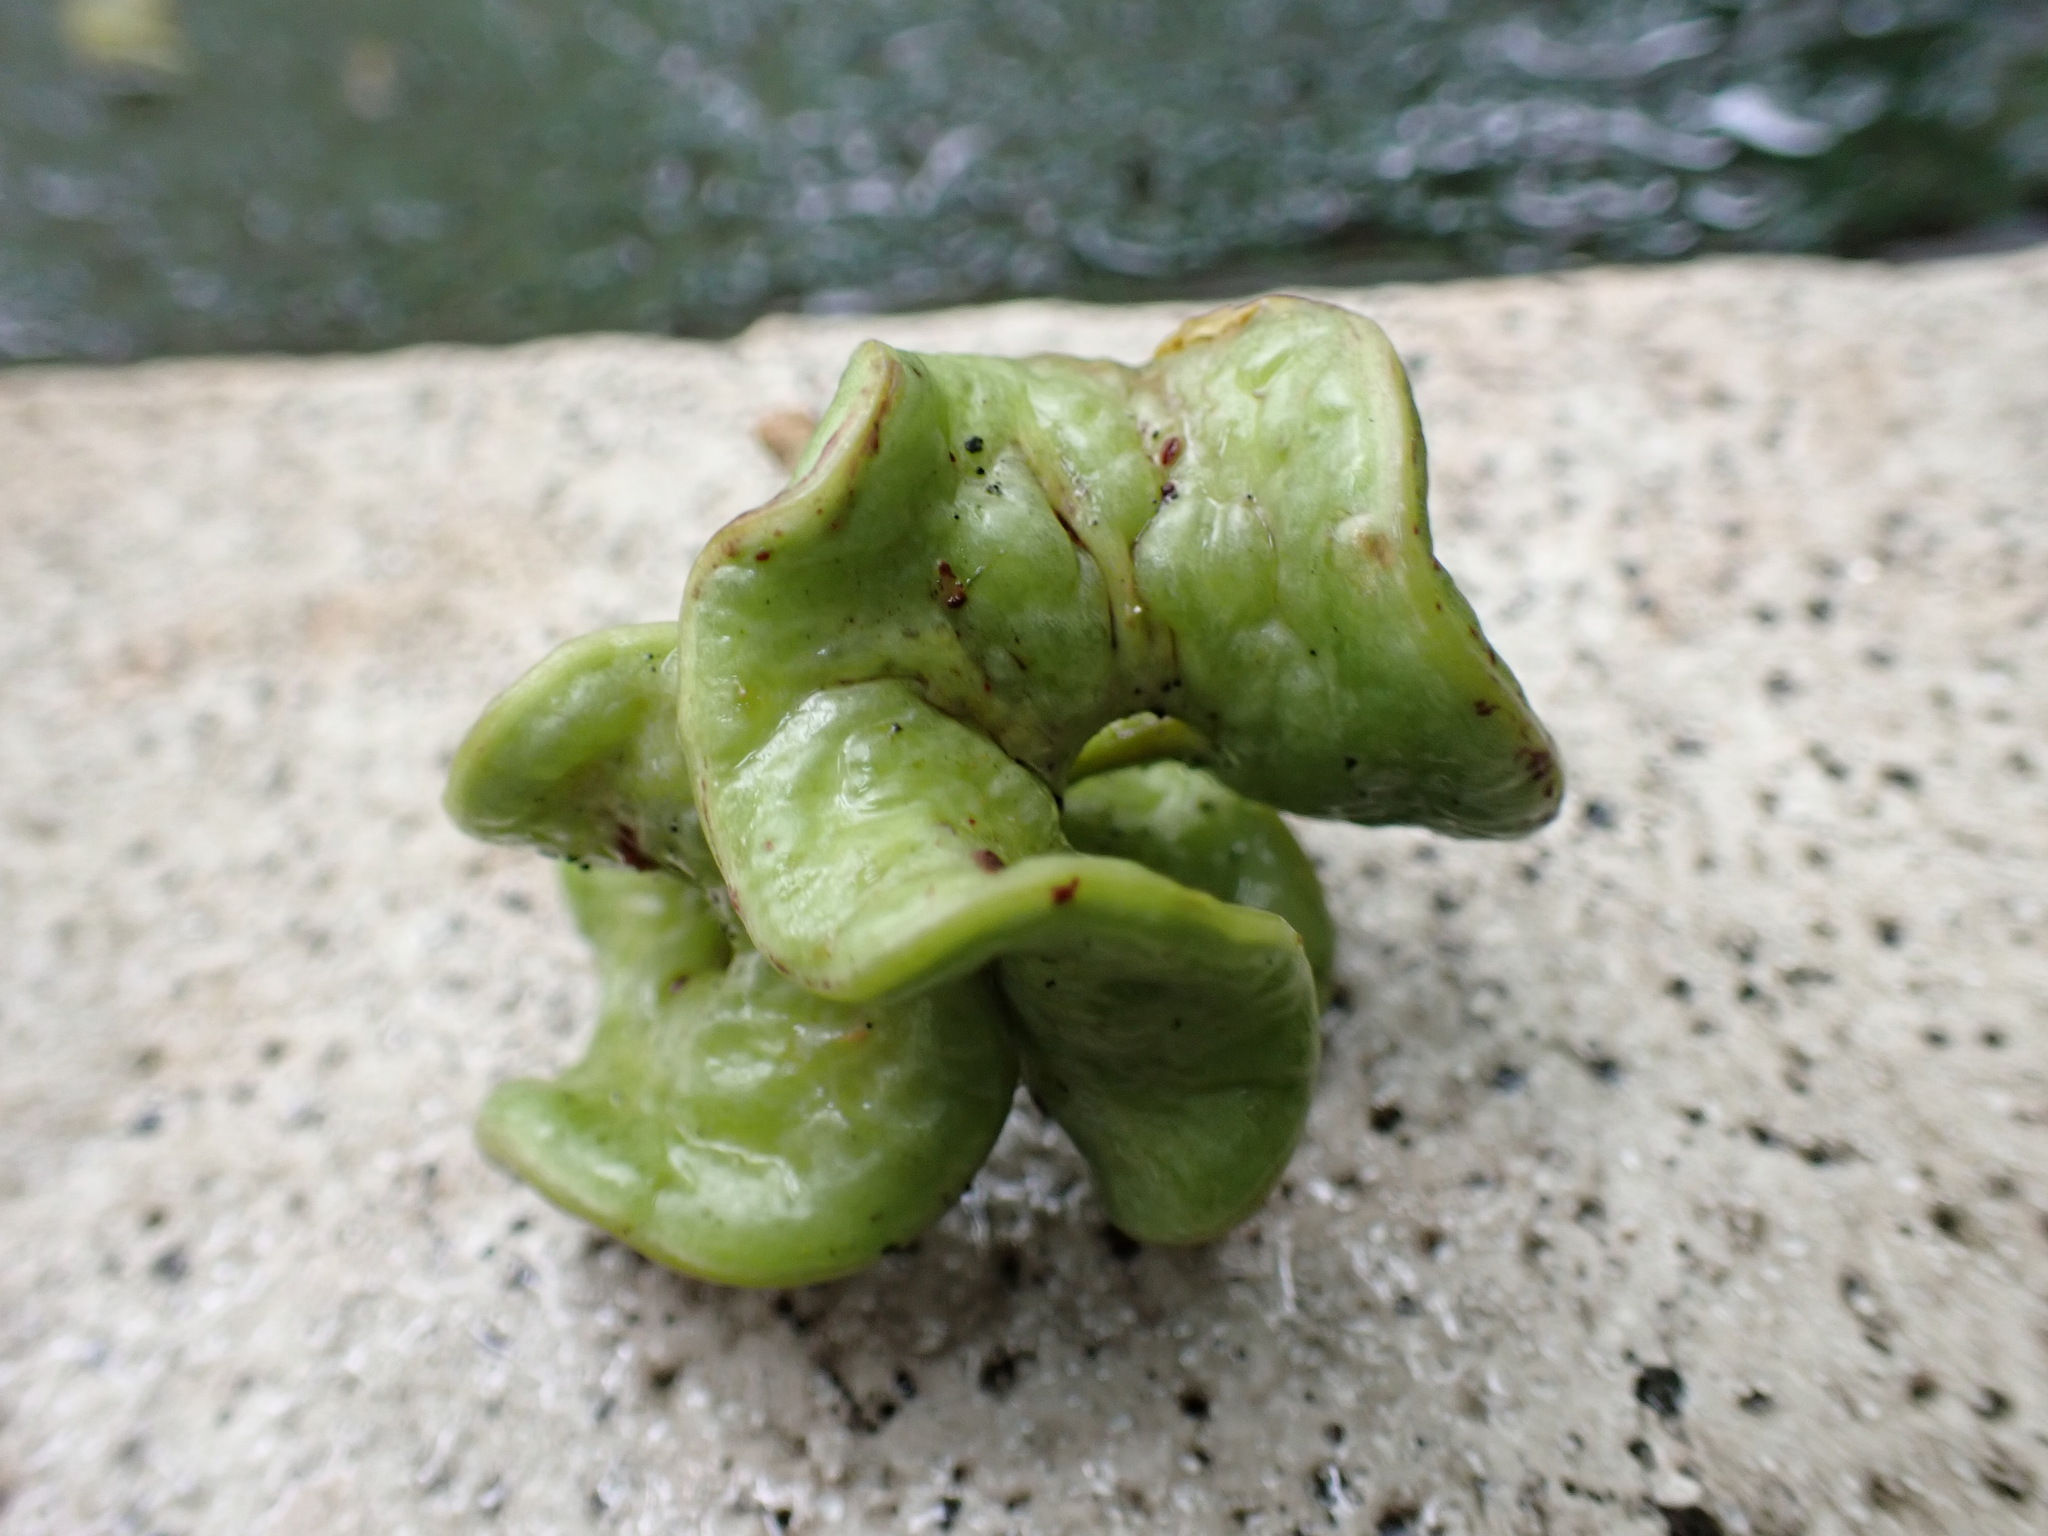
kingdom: Plantae
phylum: Tracheophyta
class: Magnoliopsida
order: Fabales
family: Fabaceae
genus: Acacia
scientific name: Acacia auriculiformis
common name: Earleaf acacia
